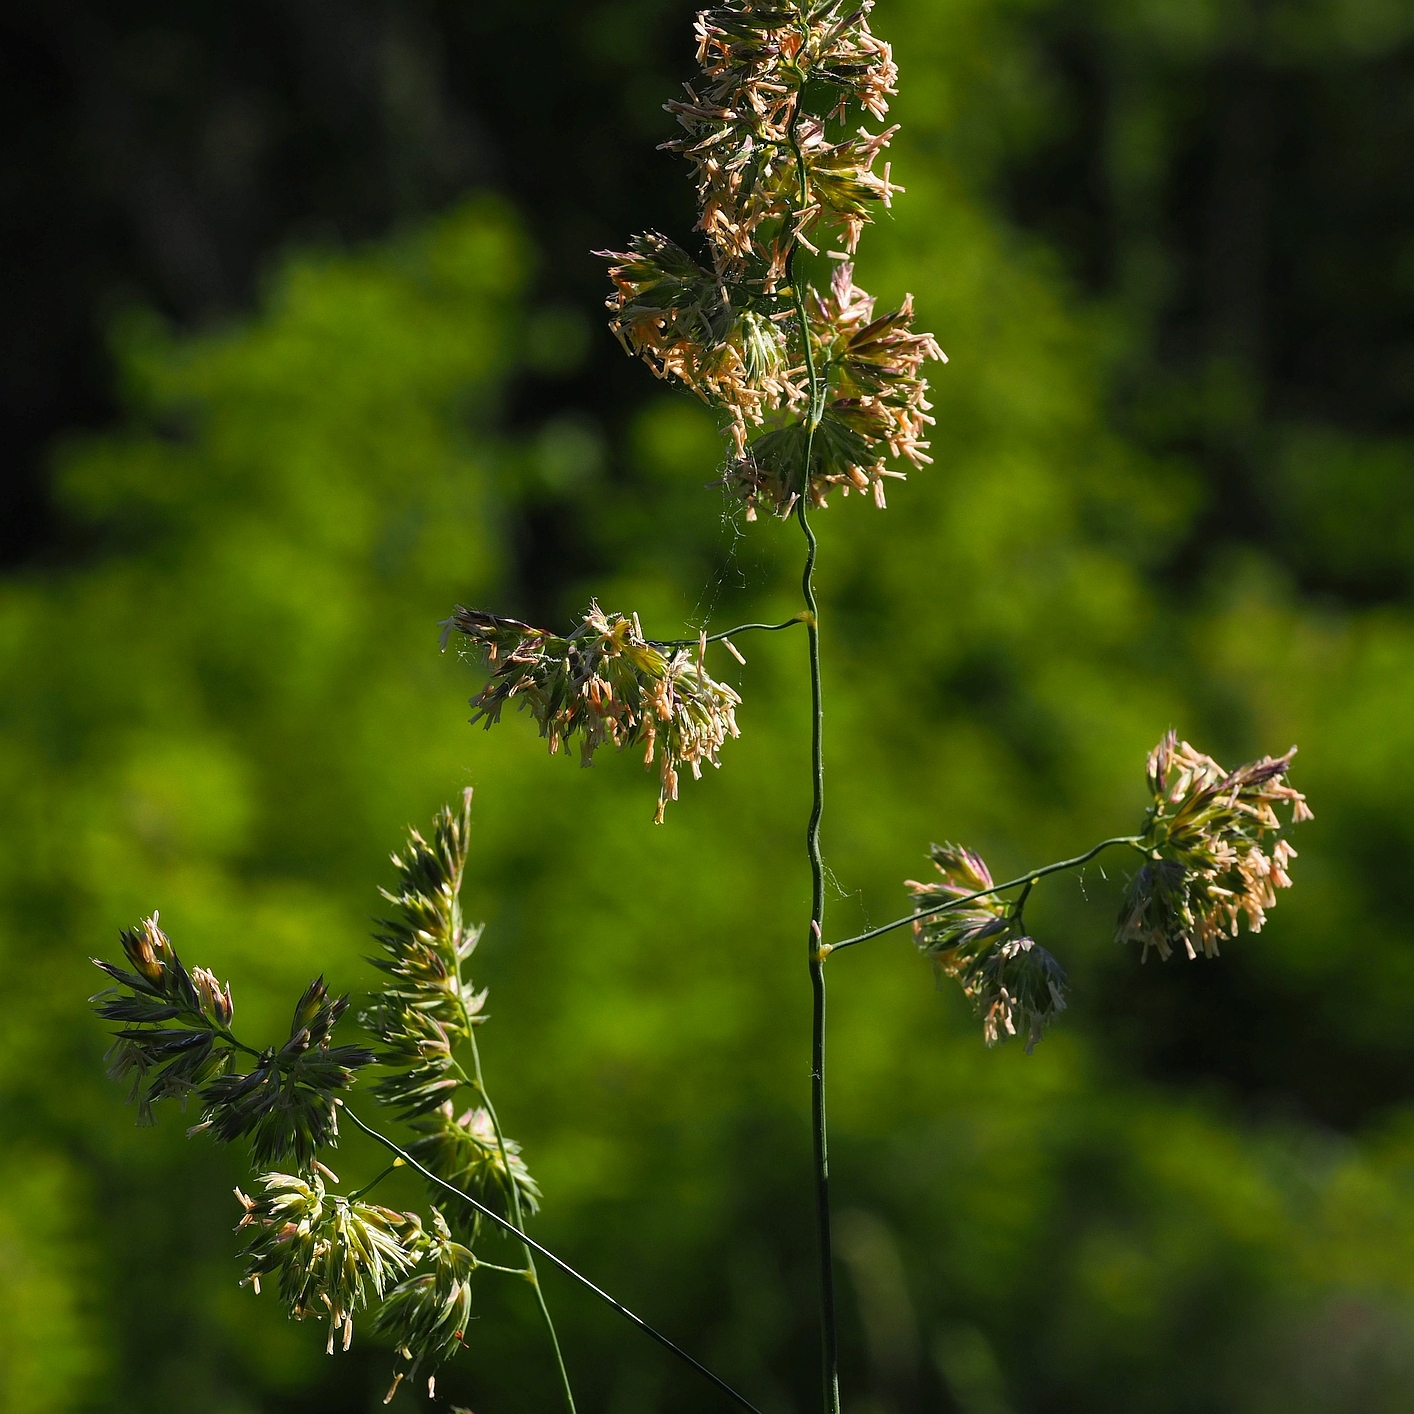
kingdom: Plantae
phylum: Tracheophyta
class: Liliopsida
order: Poales
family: Poaceae
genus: Dactylis
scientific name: Dactylis glomerata
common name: Orchardgrass
